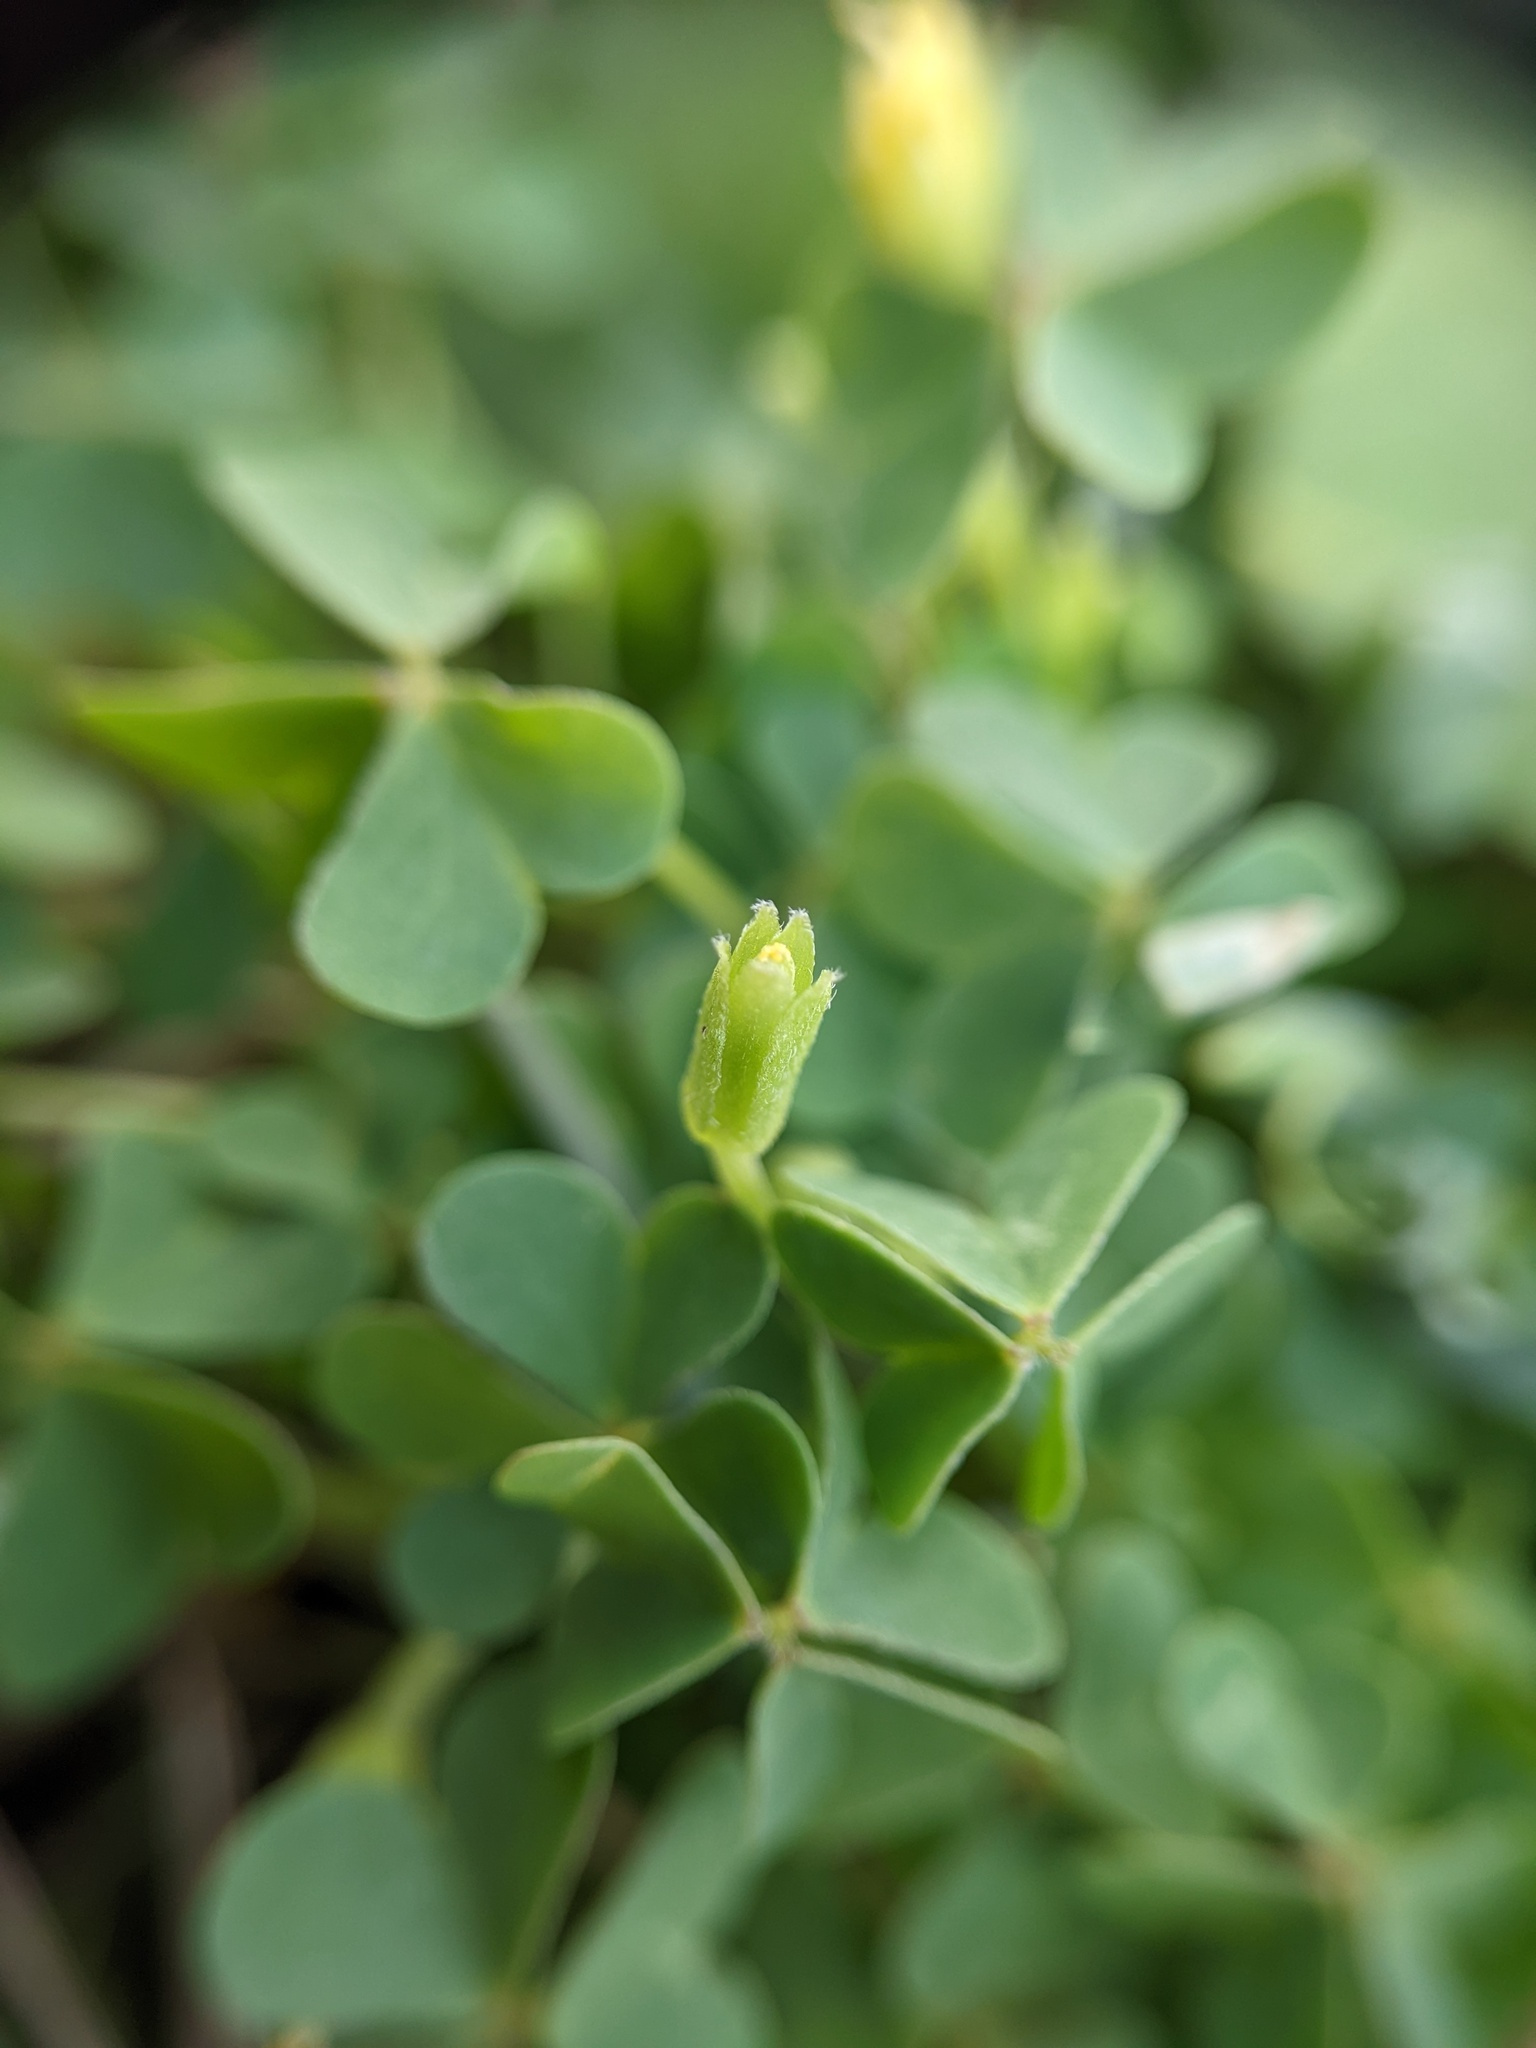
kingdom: Plantae
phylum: Tracheophyta
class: Magnoliopsida
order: Oxalidales
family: Oxalidaceae
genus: Oxalis
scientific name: Oxalis dillenii
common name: Sussex yellow-sorrel
